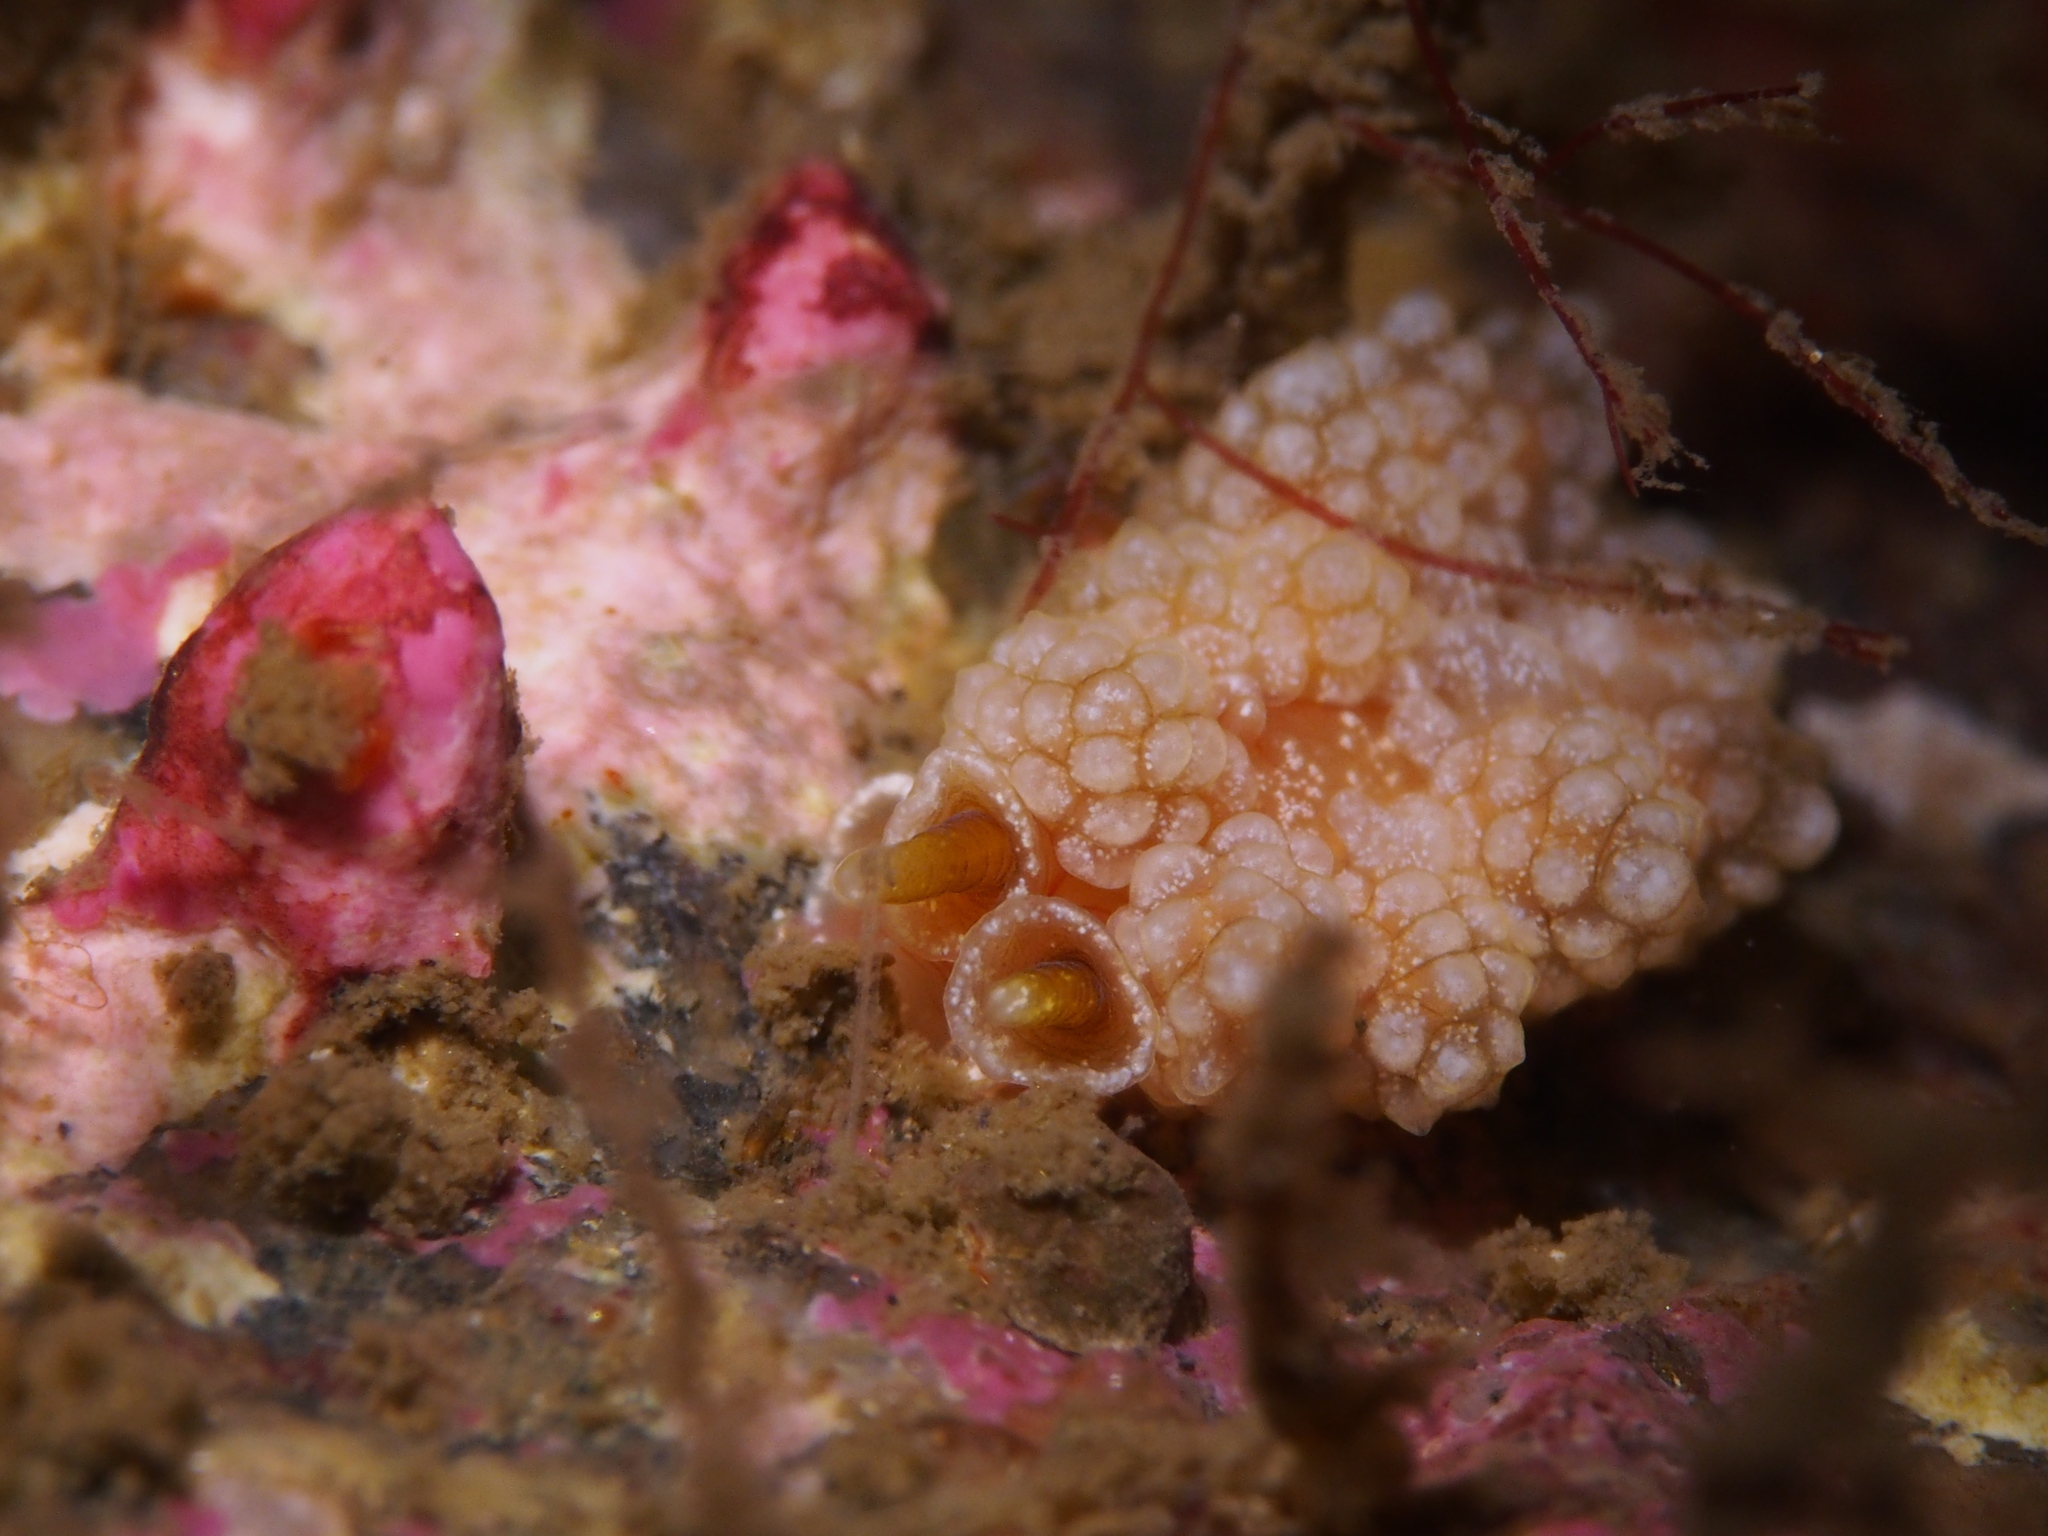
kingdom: Animalia
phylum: Mollusca
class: Gastropoda
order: Nudibranchia
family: Dotidae
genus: Doto
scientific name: Doto fragilis
